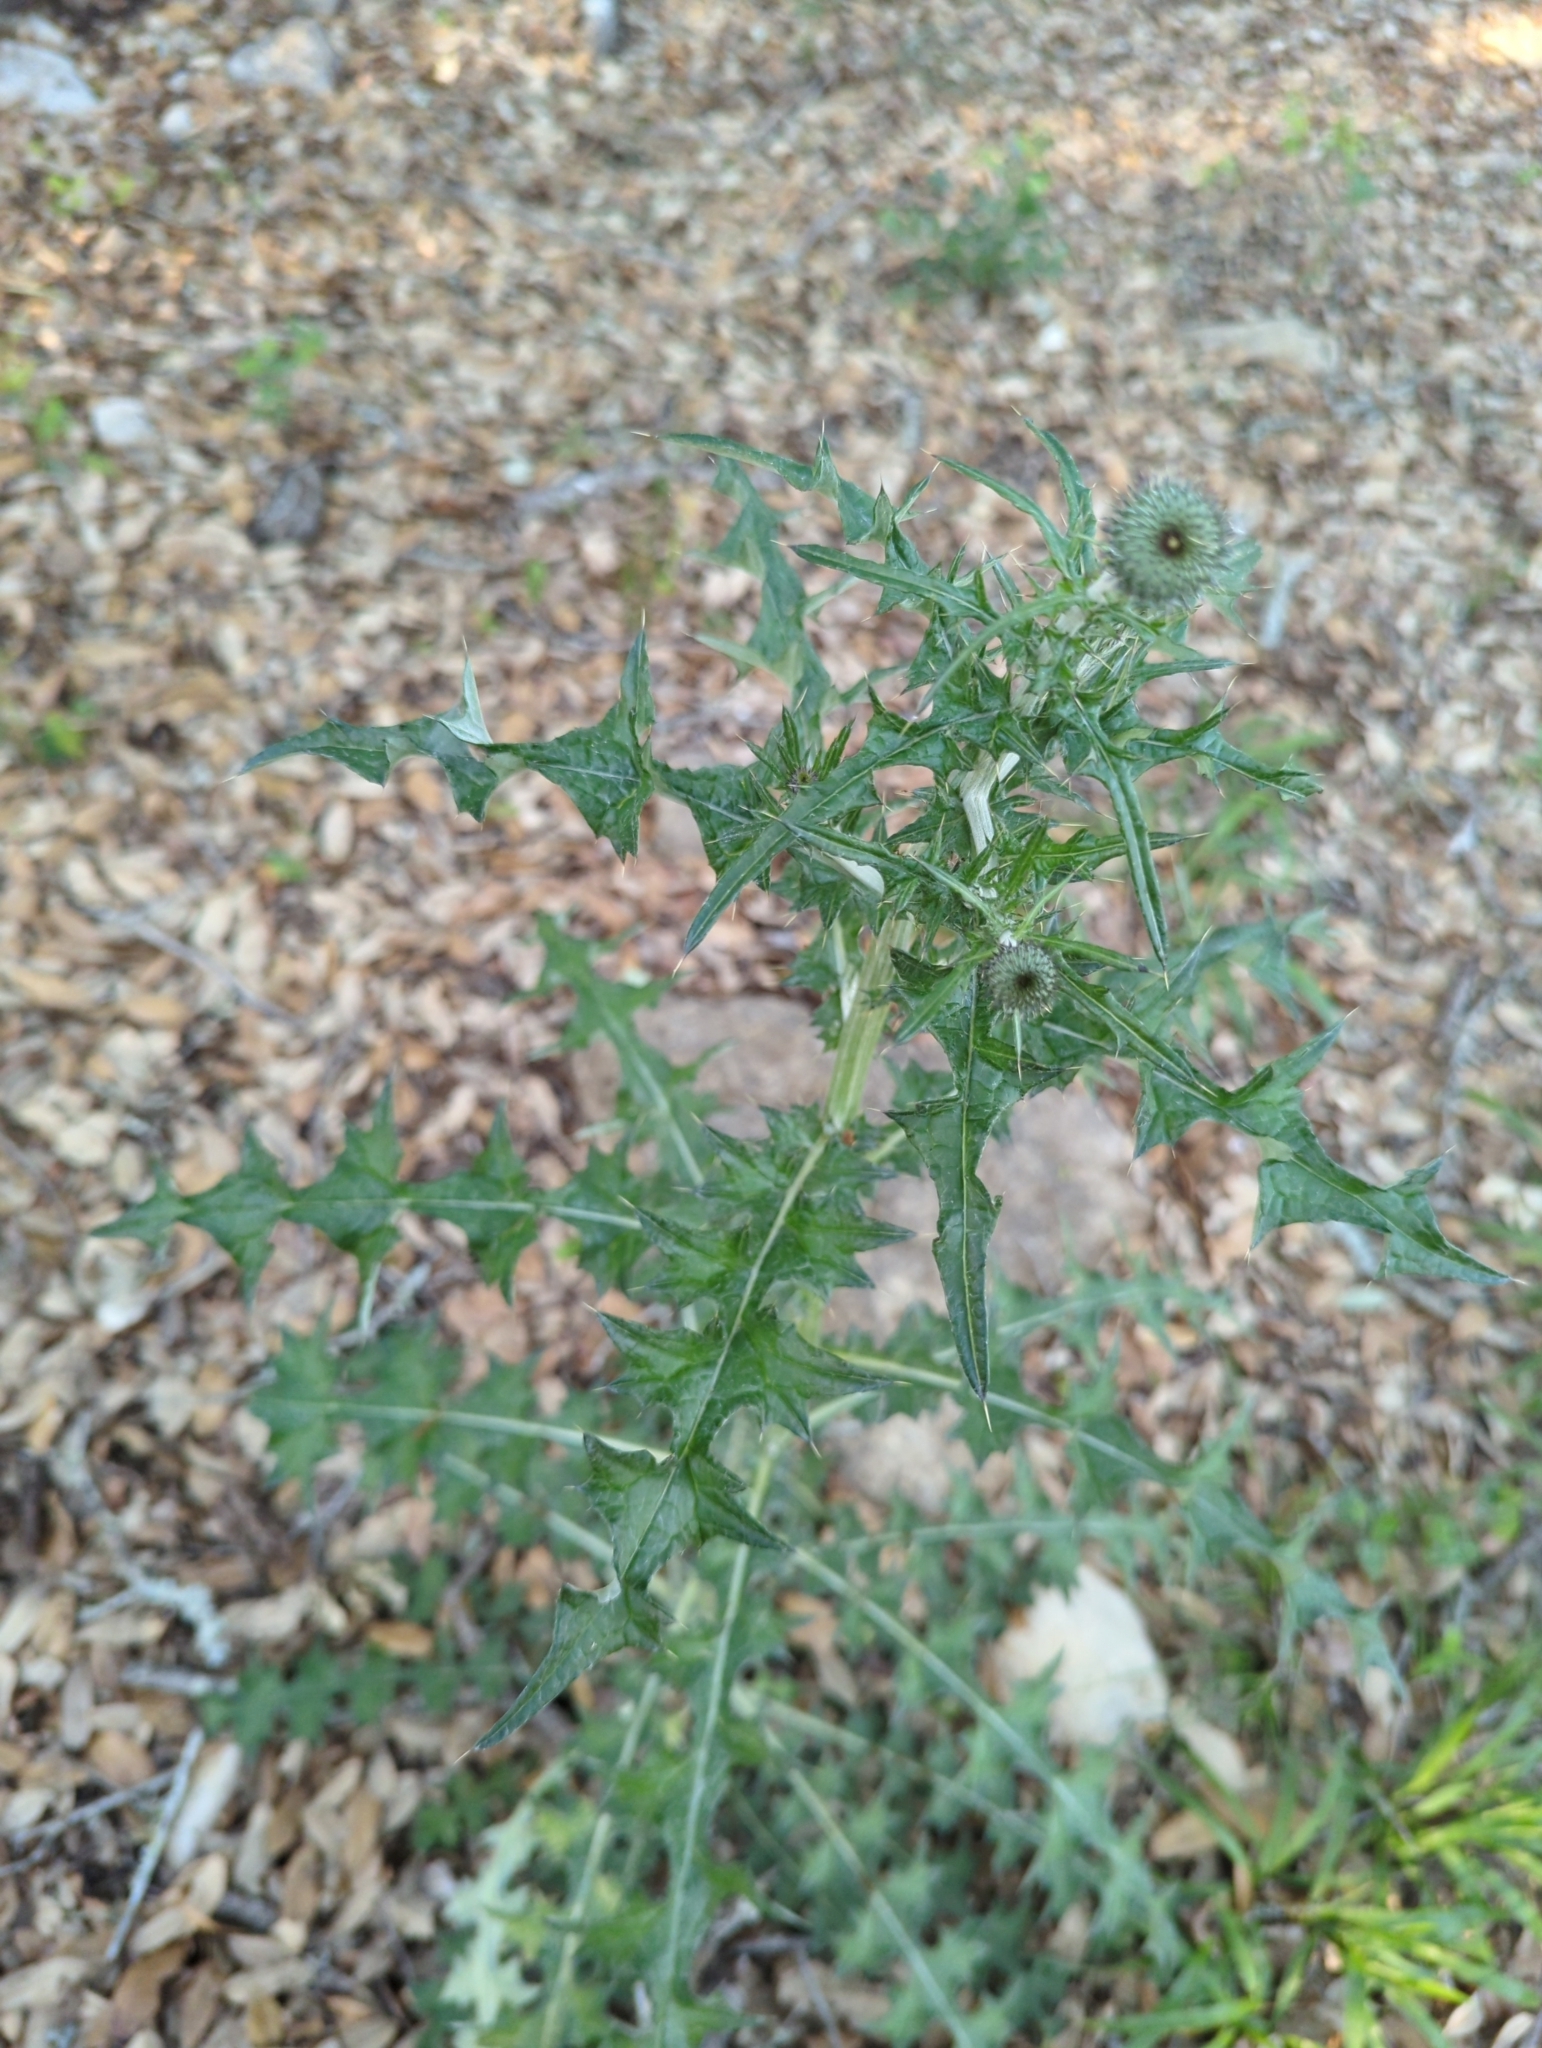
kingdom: Plantae
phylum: Tracheophyta
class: Magnoliopsida
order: Asterales
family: Asteraceae
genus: Cirsium
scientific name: Cirsium texanum
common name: Texas purple thistle
